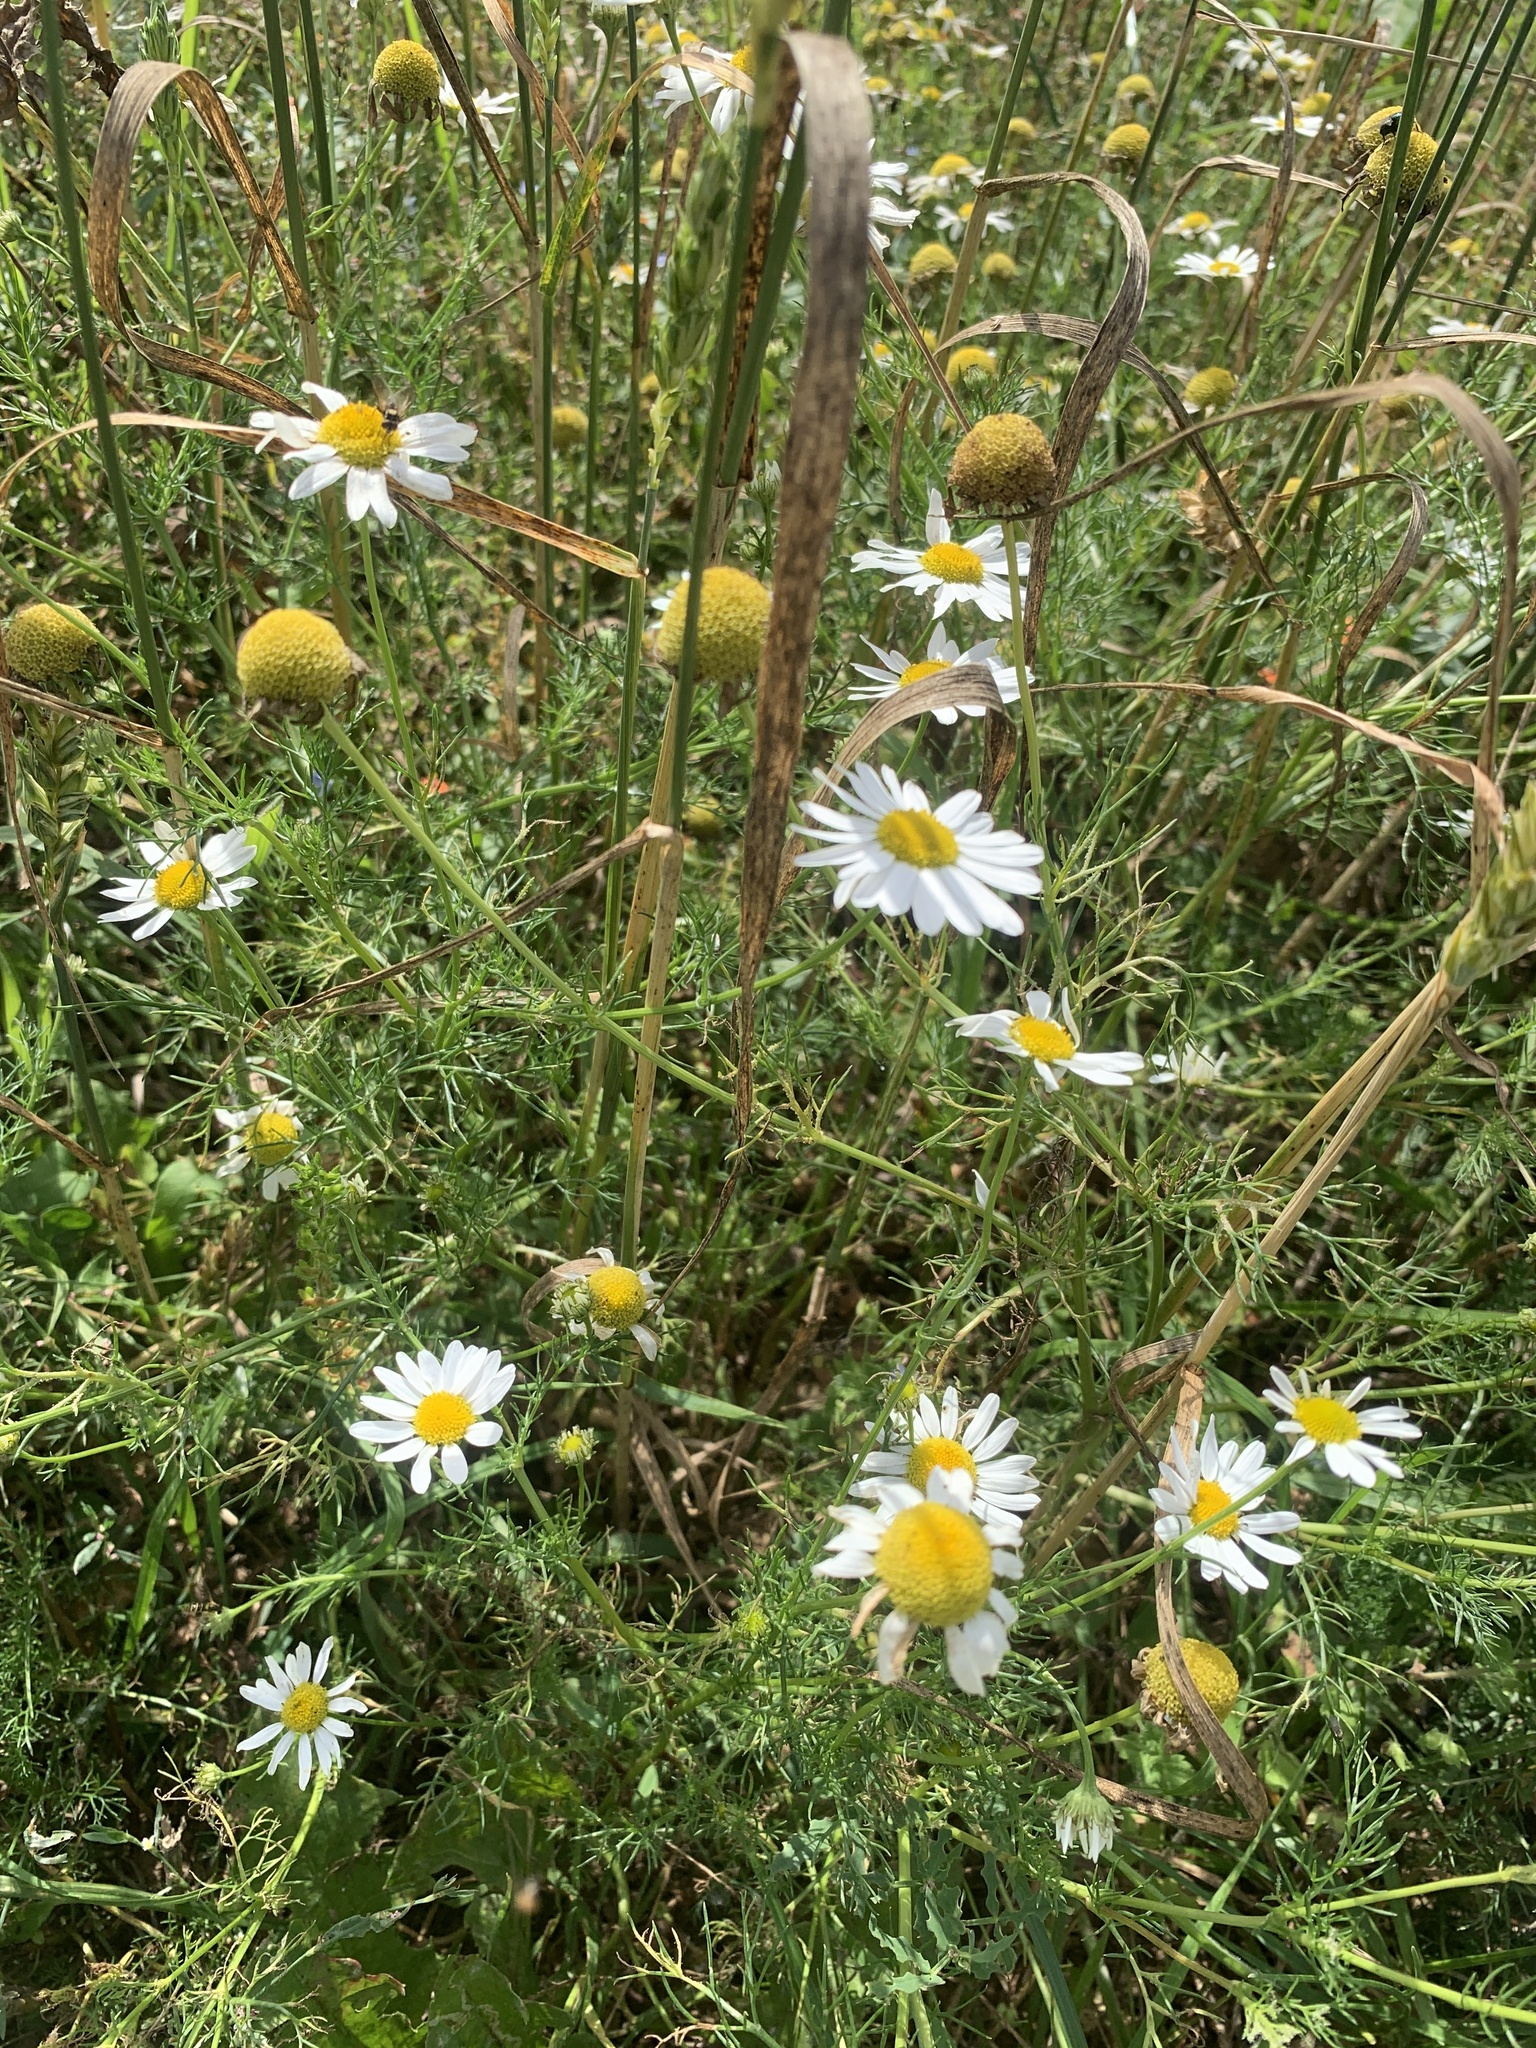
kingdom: Plantae
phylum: Tracheophyta
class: Magnoliopsida
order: Asterales
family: Asteraceae
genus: Tripleurospermum
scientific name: Tripleurospermum inodorum
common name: Scentless mayweed
